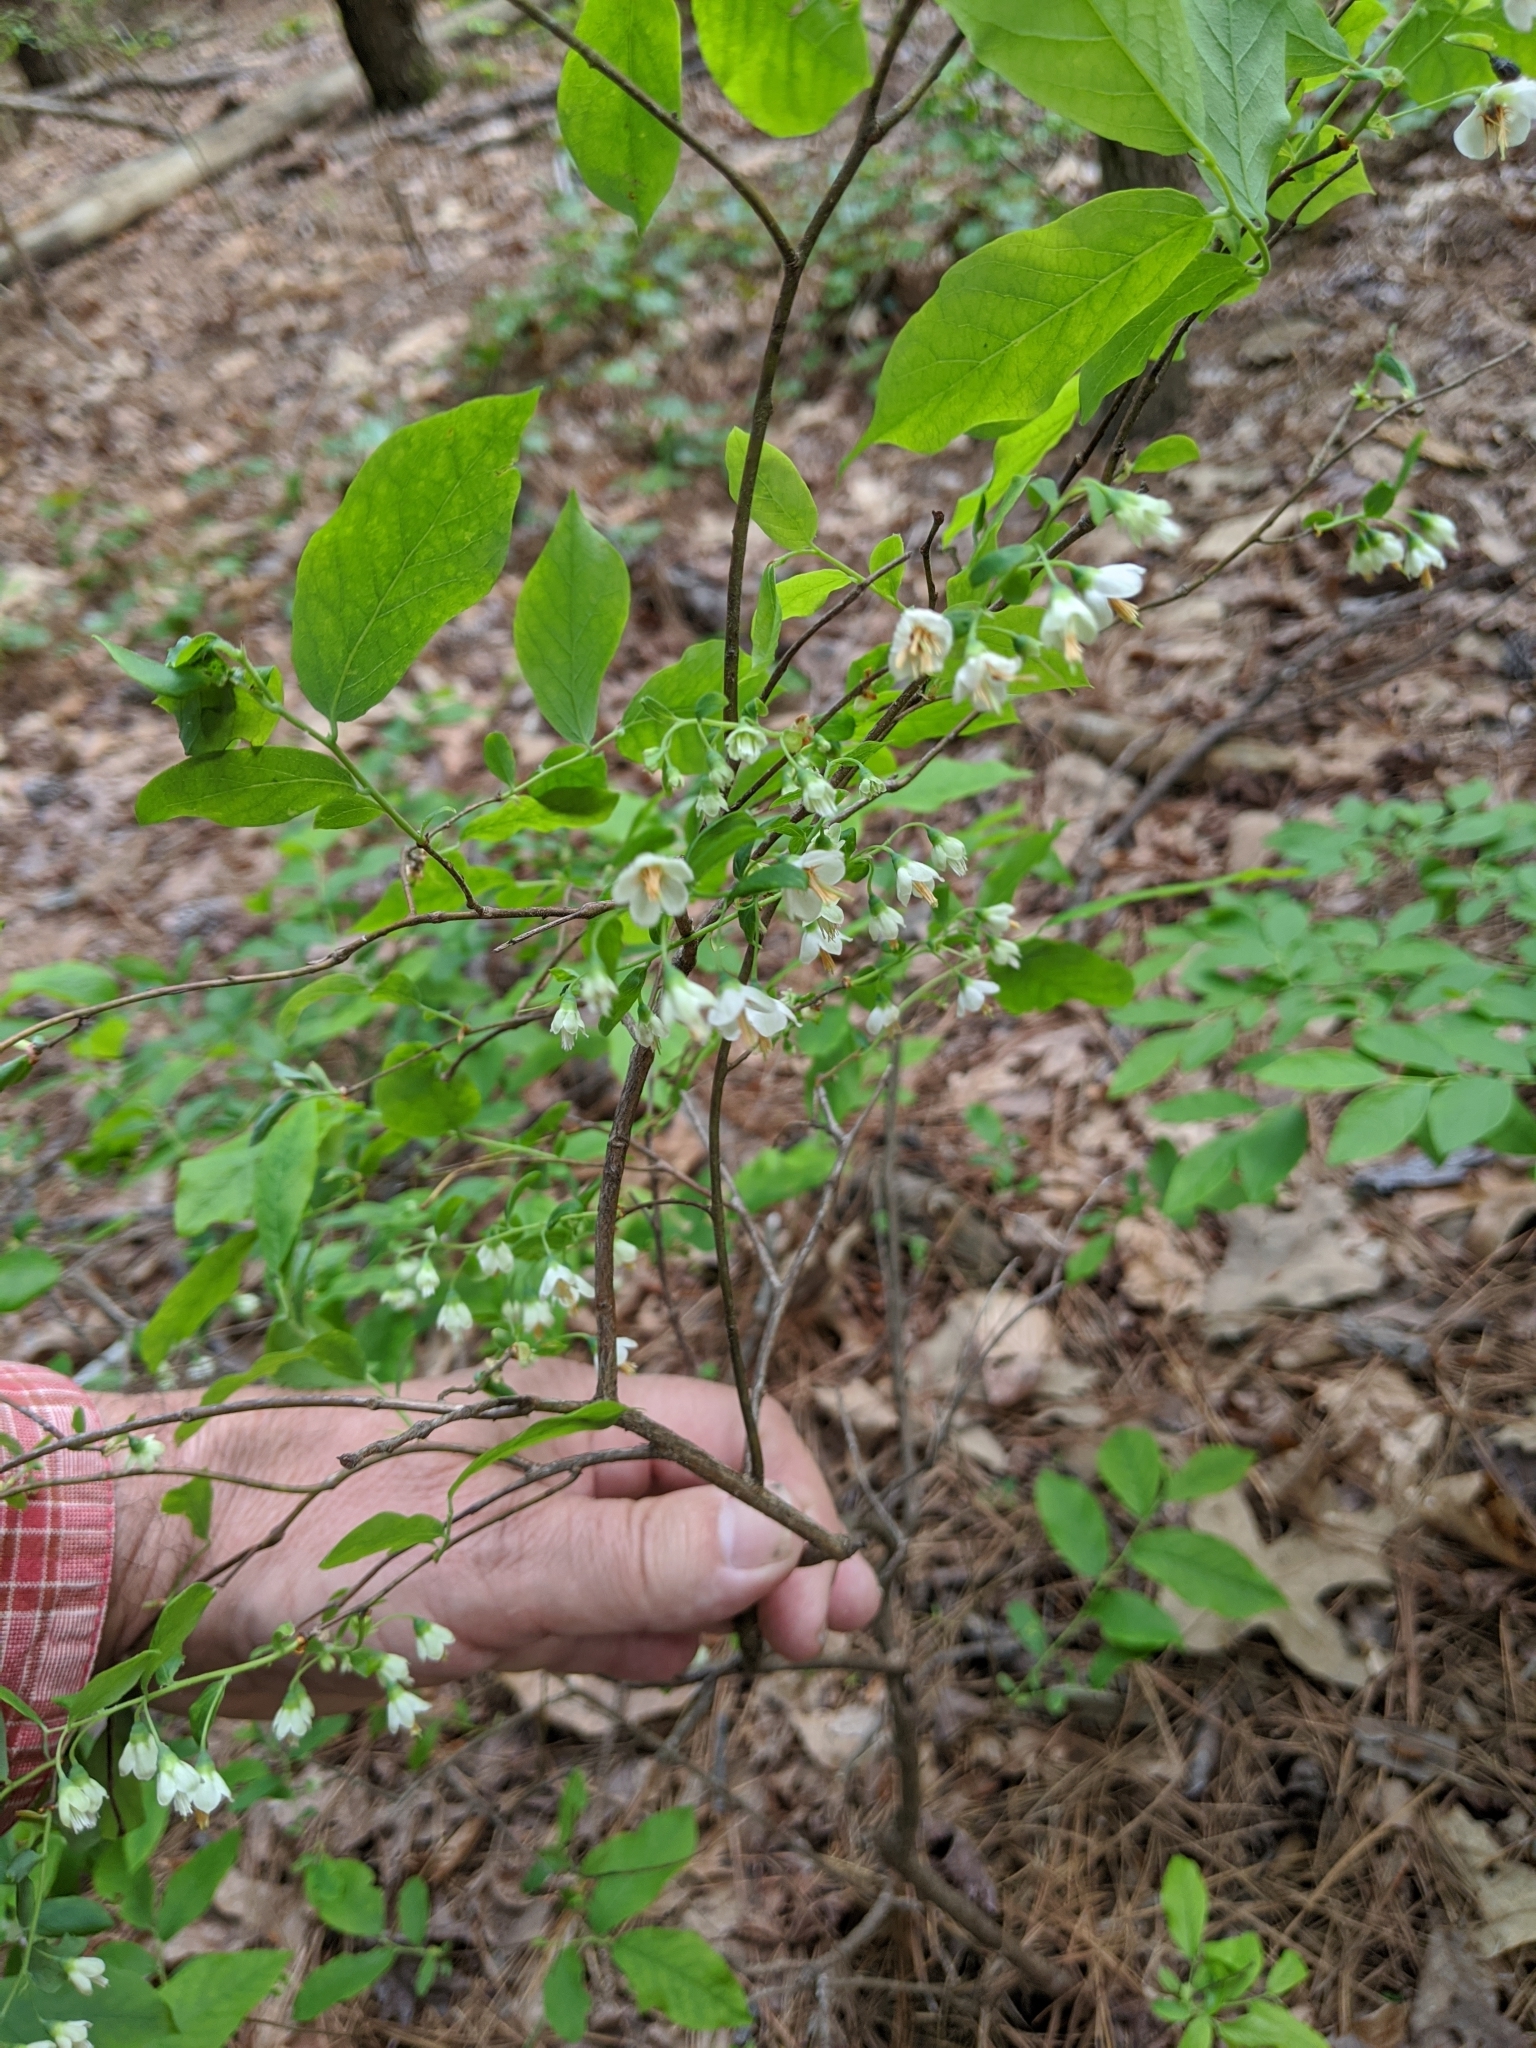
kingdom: Plantae
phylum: Tracheophyta
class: Magnoliopsida
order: Ericales
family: Ericaceae
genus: Vaccinium
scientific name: Vaccinium stamineum
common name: Deerberry
